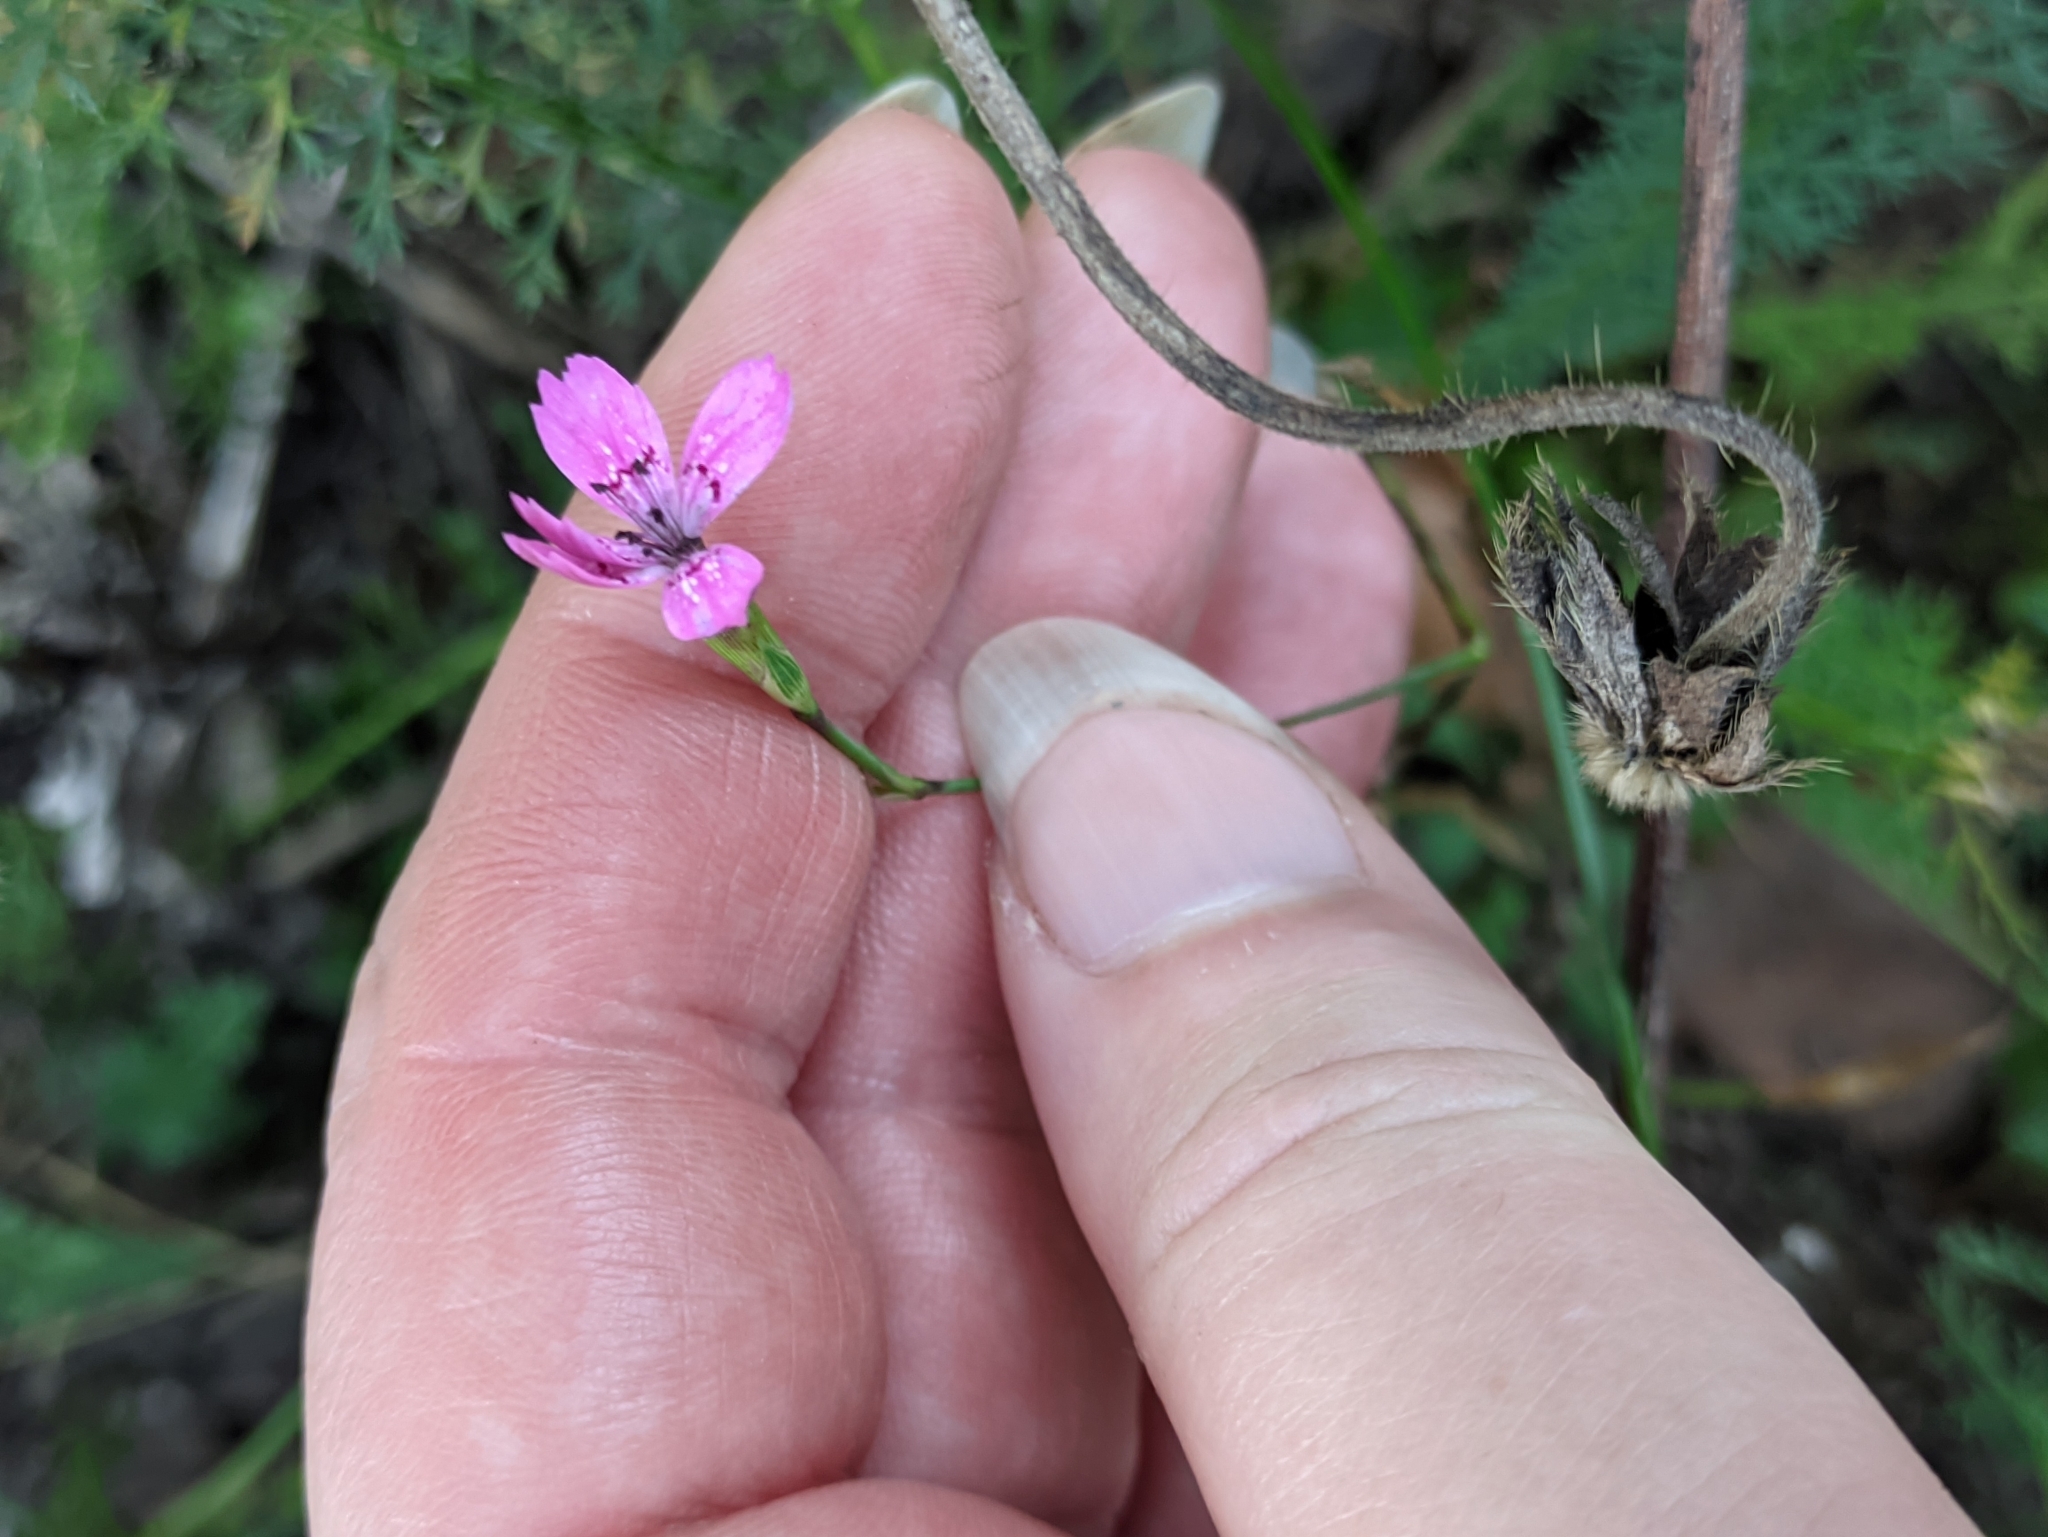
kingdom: Plantae
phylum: Tracheophyta
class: Magnoliopsida
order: Caryophyllales
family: Caryophyllaceae
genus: Dianthus
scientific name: Dianthus deltoides
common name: Maiden pink
